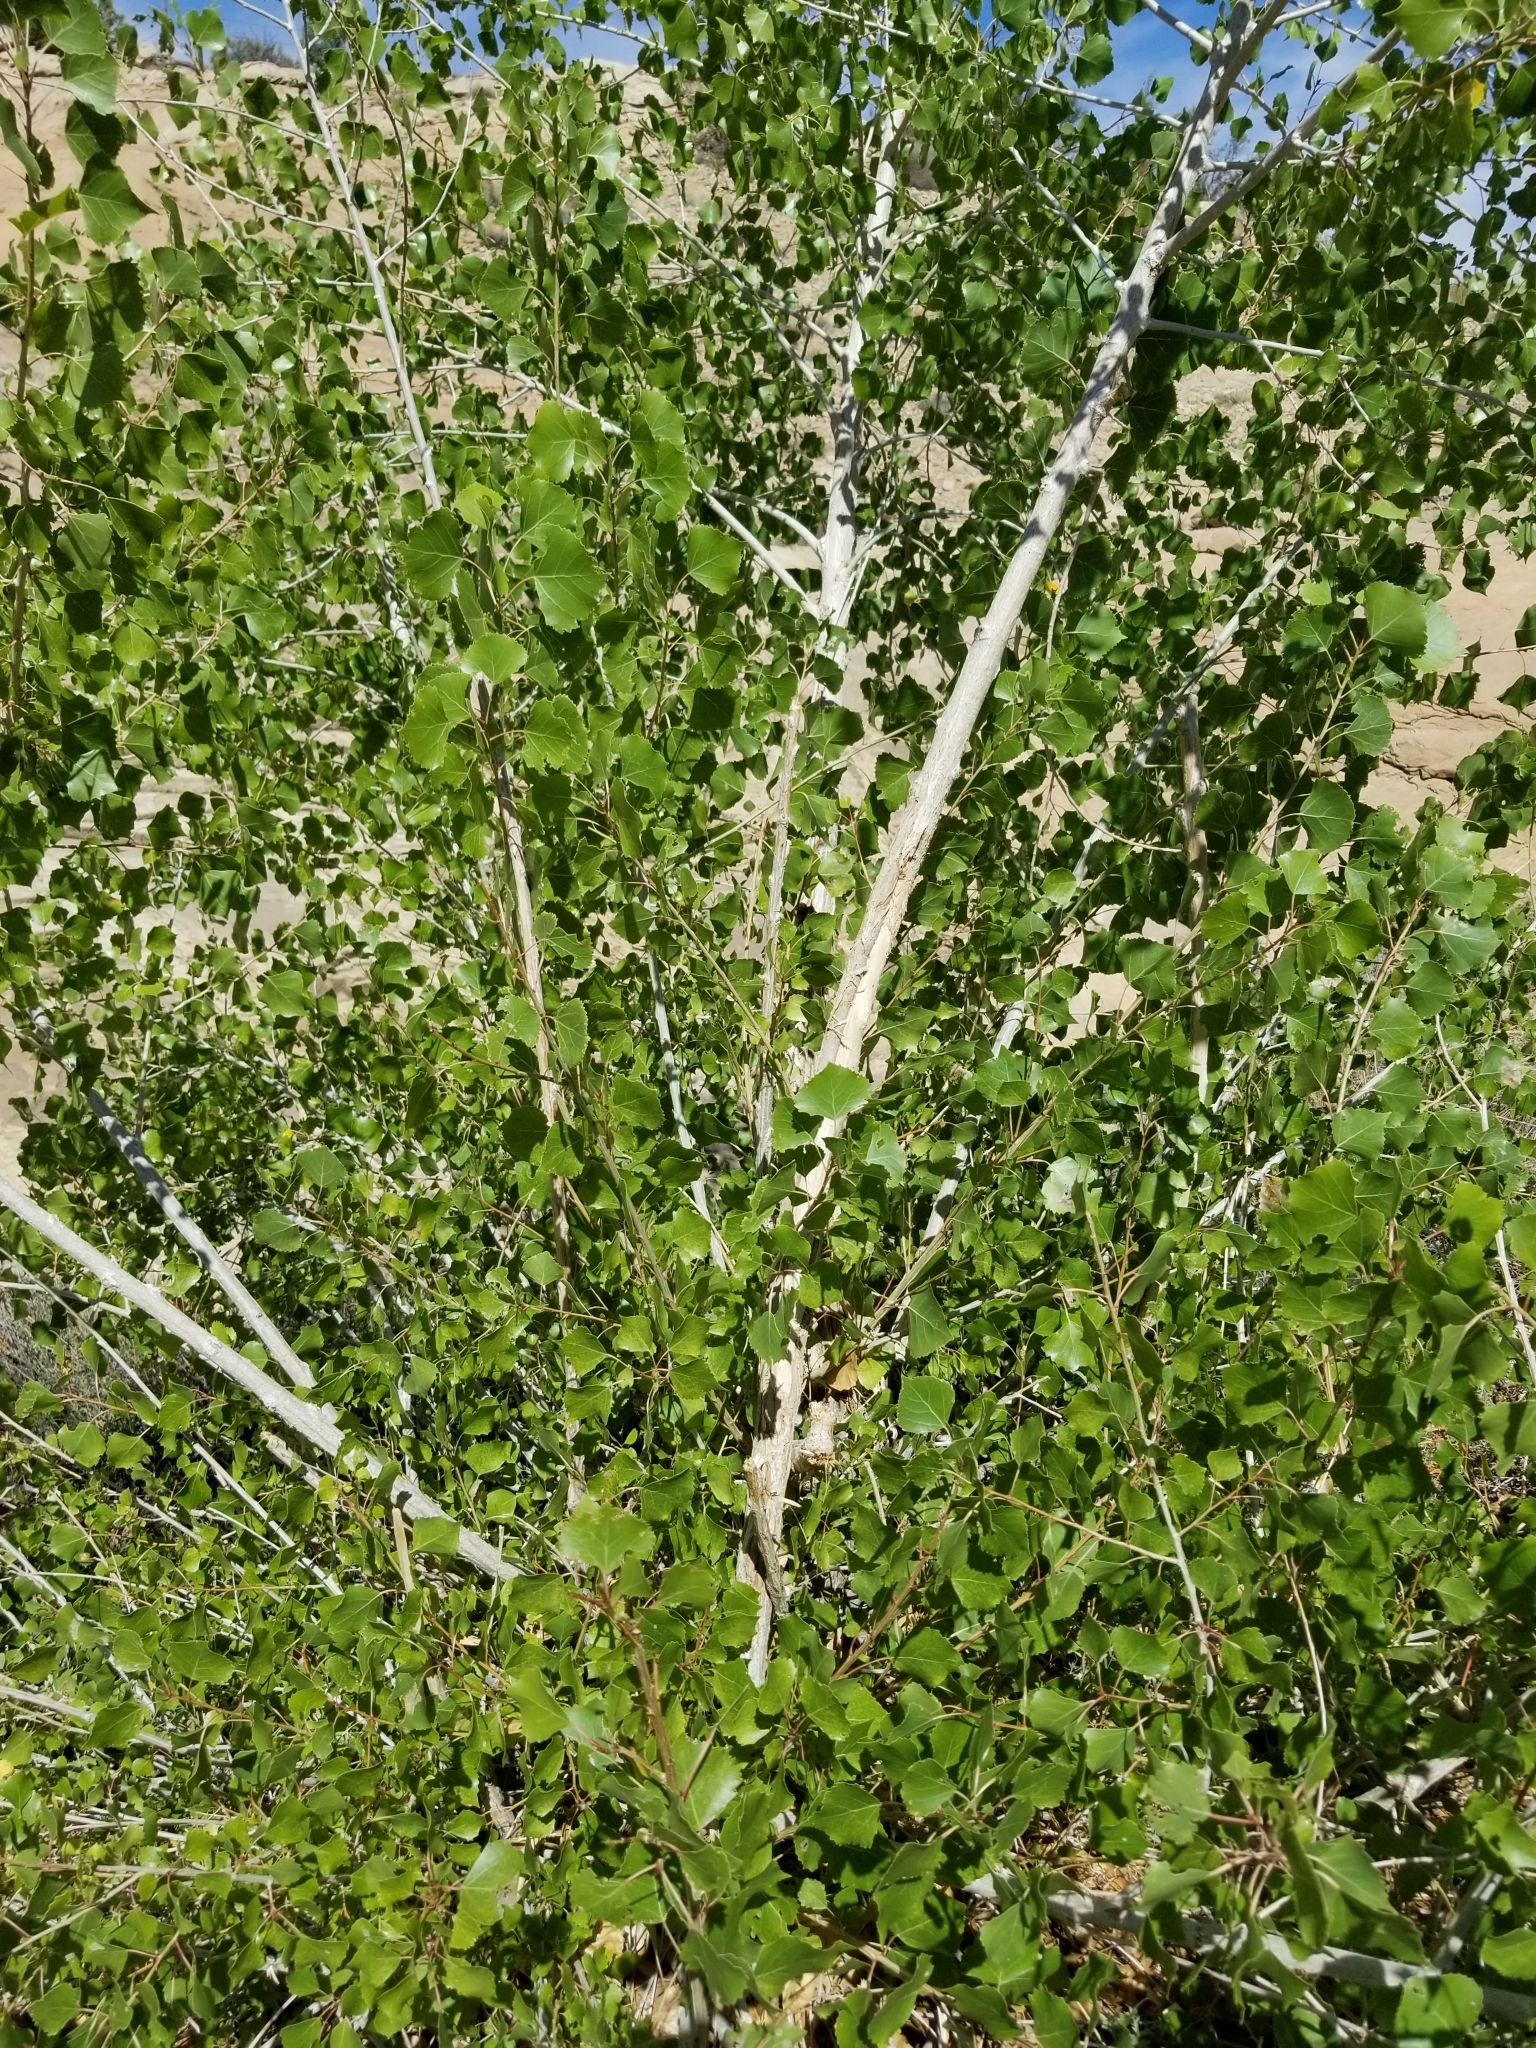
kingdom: Plantae
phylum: Tracheophyta
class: Magnoliopsida
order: Malpighiales
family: Salicaceae
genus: Populus
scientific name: Populus fremontii
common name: Fremont's cottonwood
